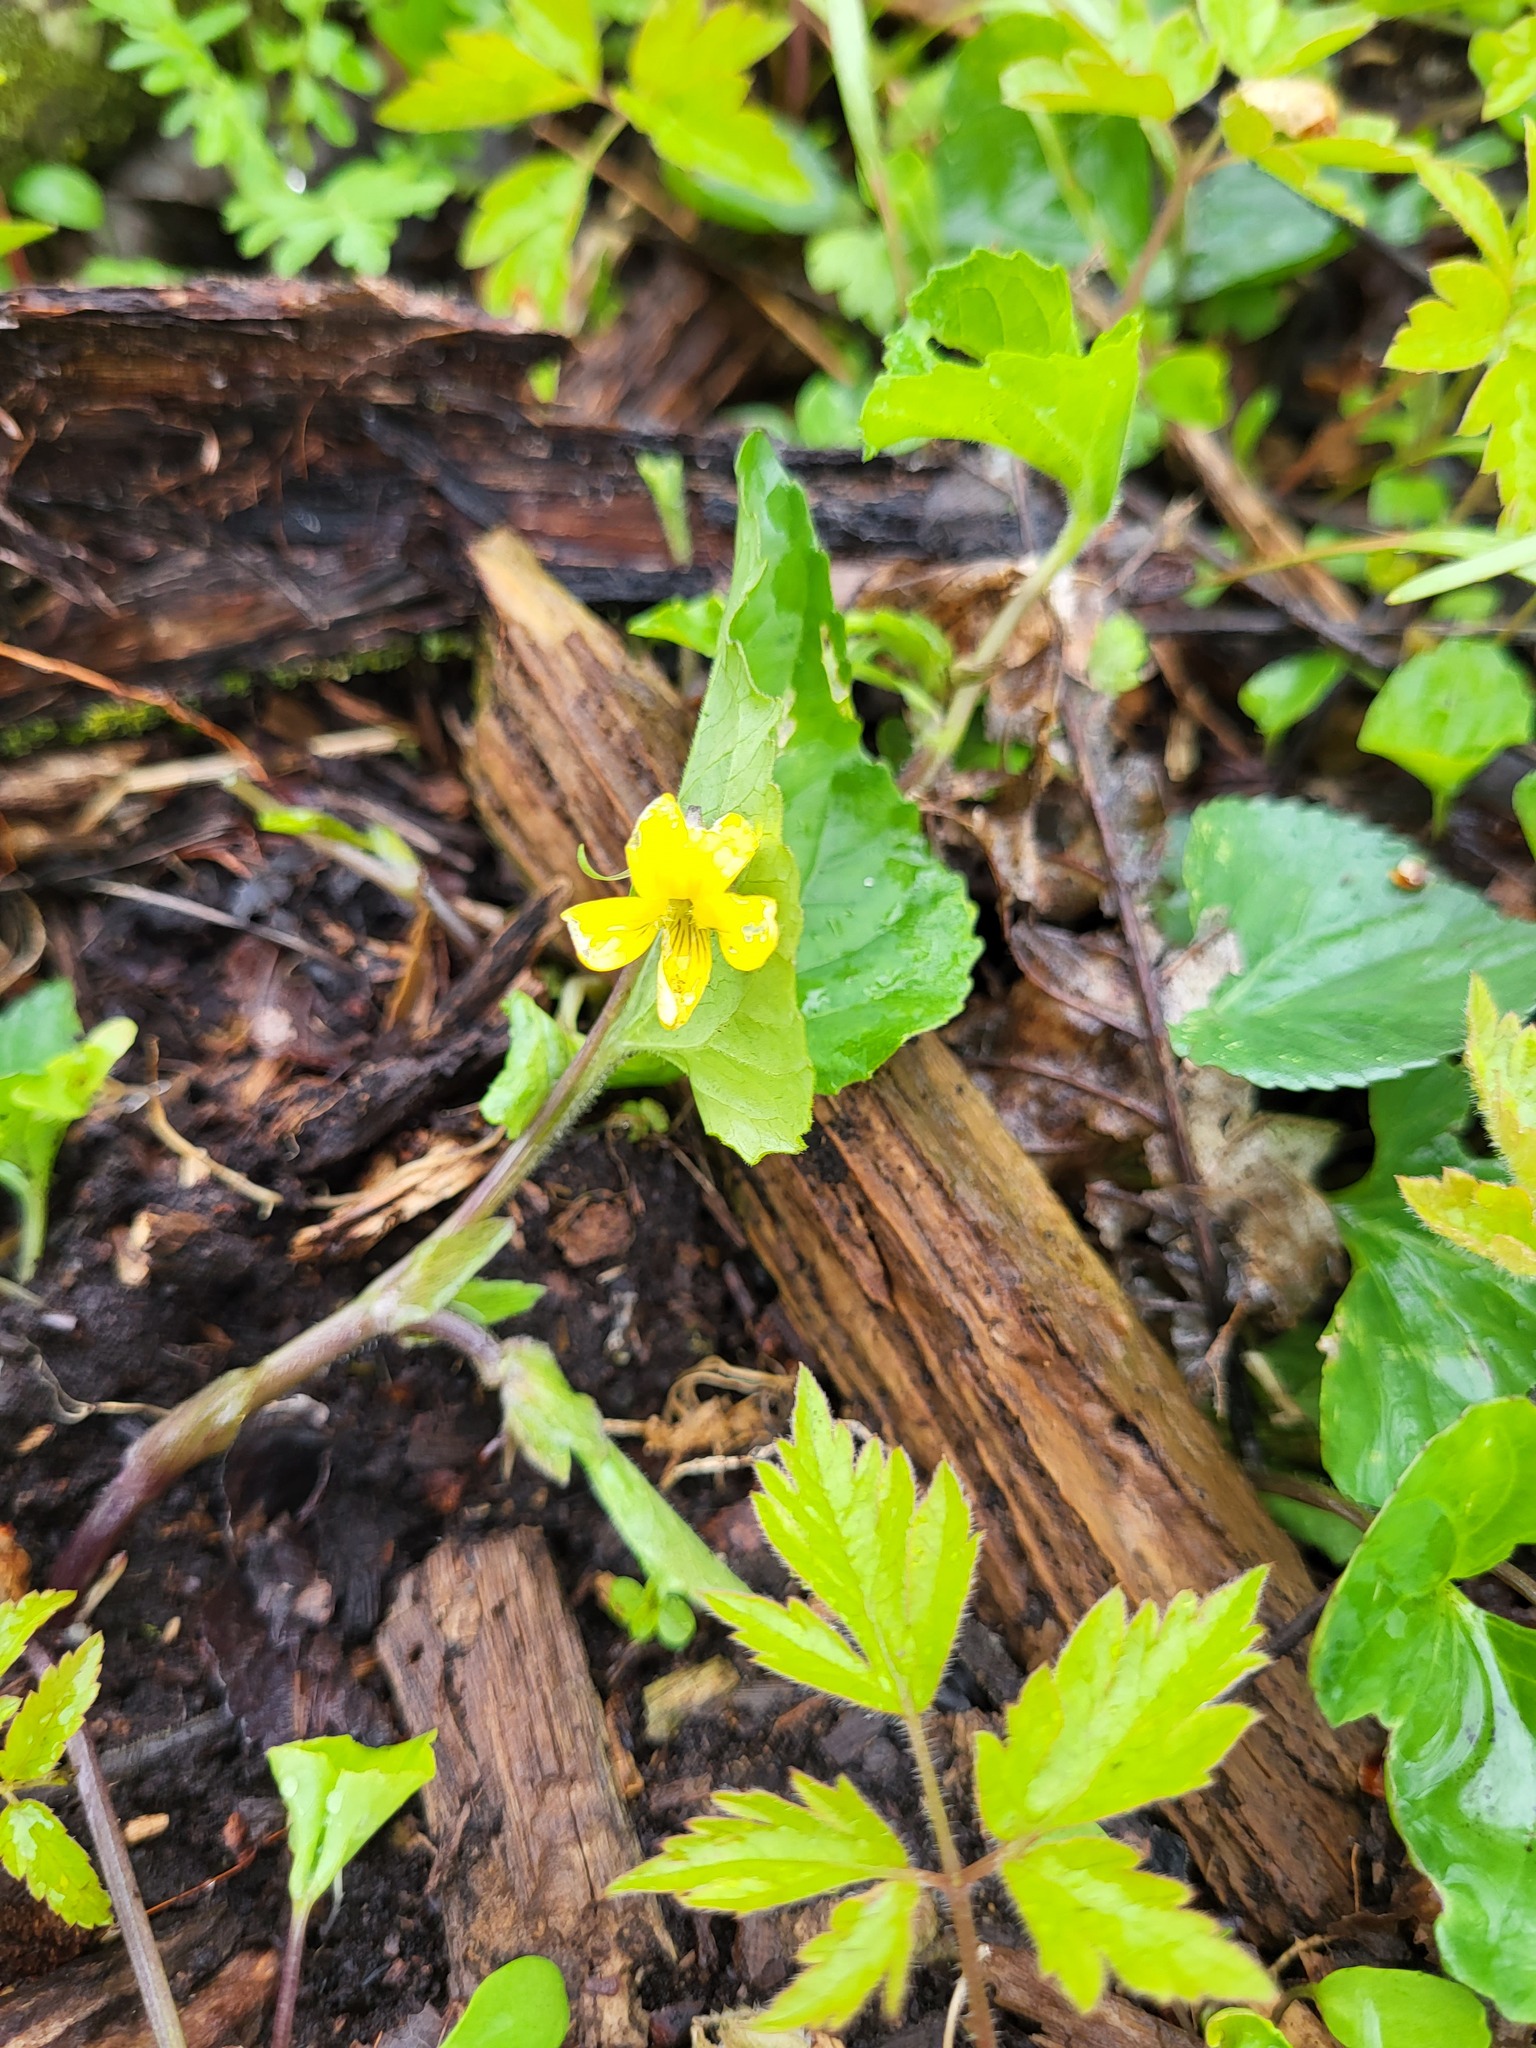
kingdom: Plantae
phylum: Tracheophyta
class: Magnoliopsida
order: Malpighiales
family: Violaceae
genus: Viola
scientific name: Viola eriocarpa
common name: Smooth yellow violet
